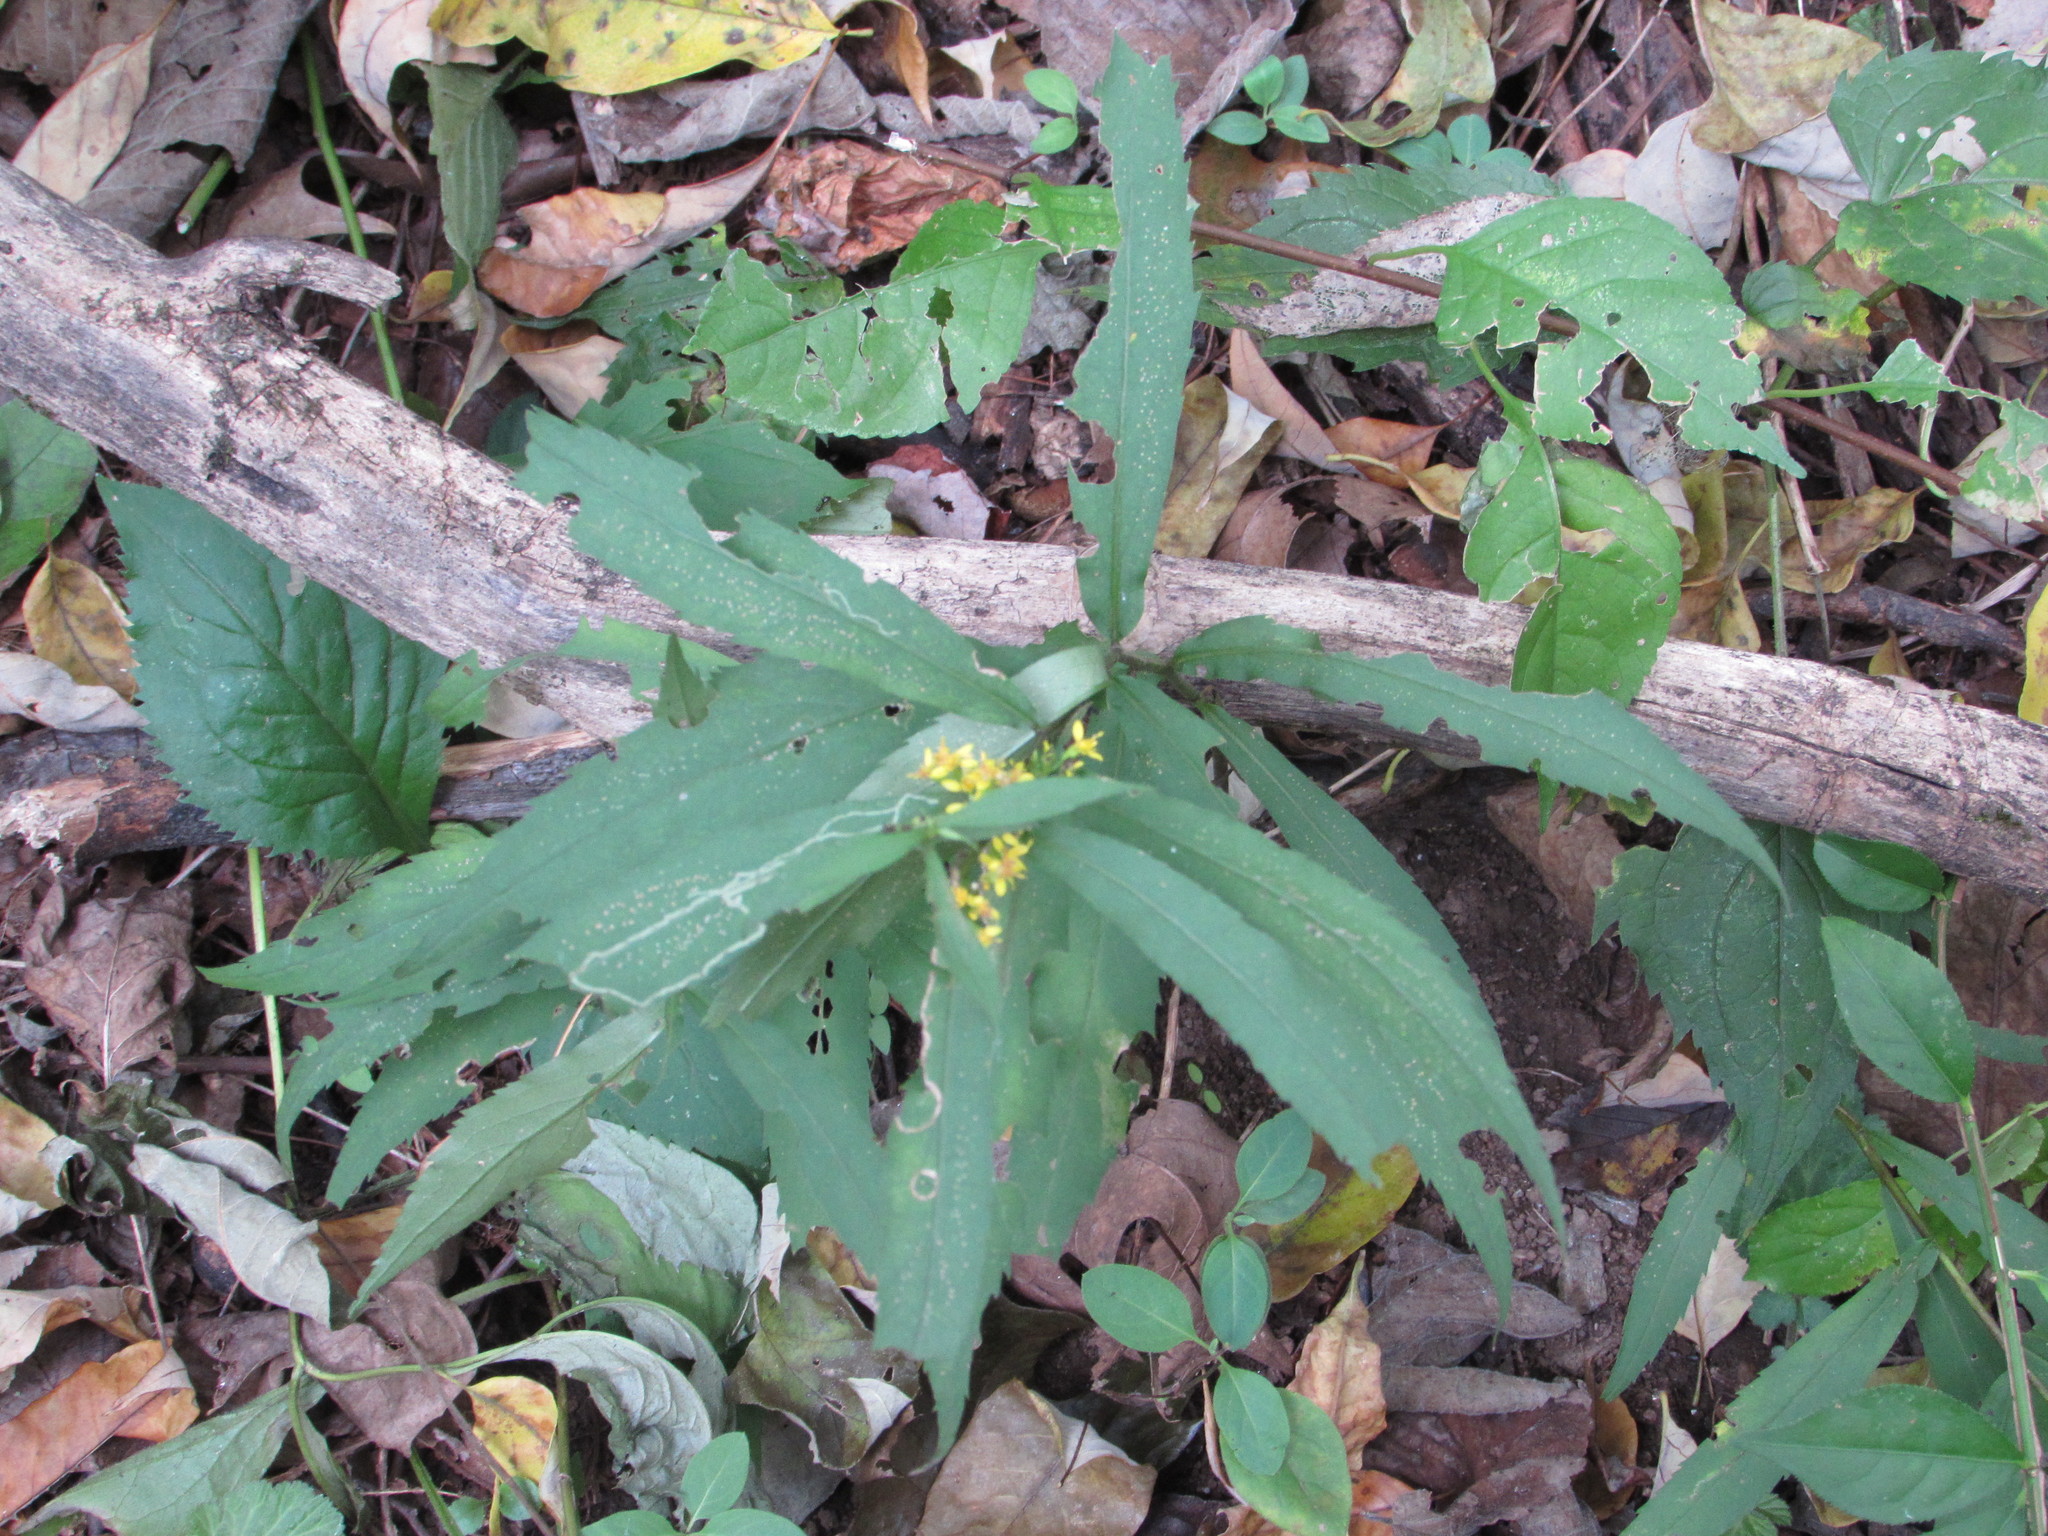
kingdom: Plantae
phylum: Tracheophyta
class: Magnoliopsida
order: Asterales
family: Asteraceae
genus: Solidago
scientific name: Solidago caesia
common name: Woodland goldenrod
